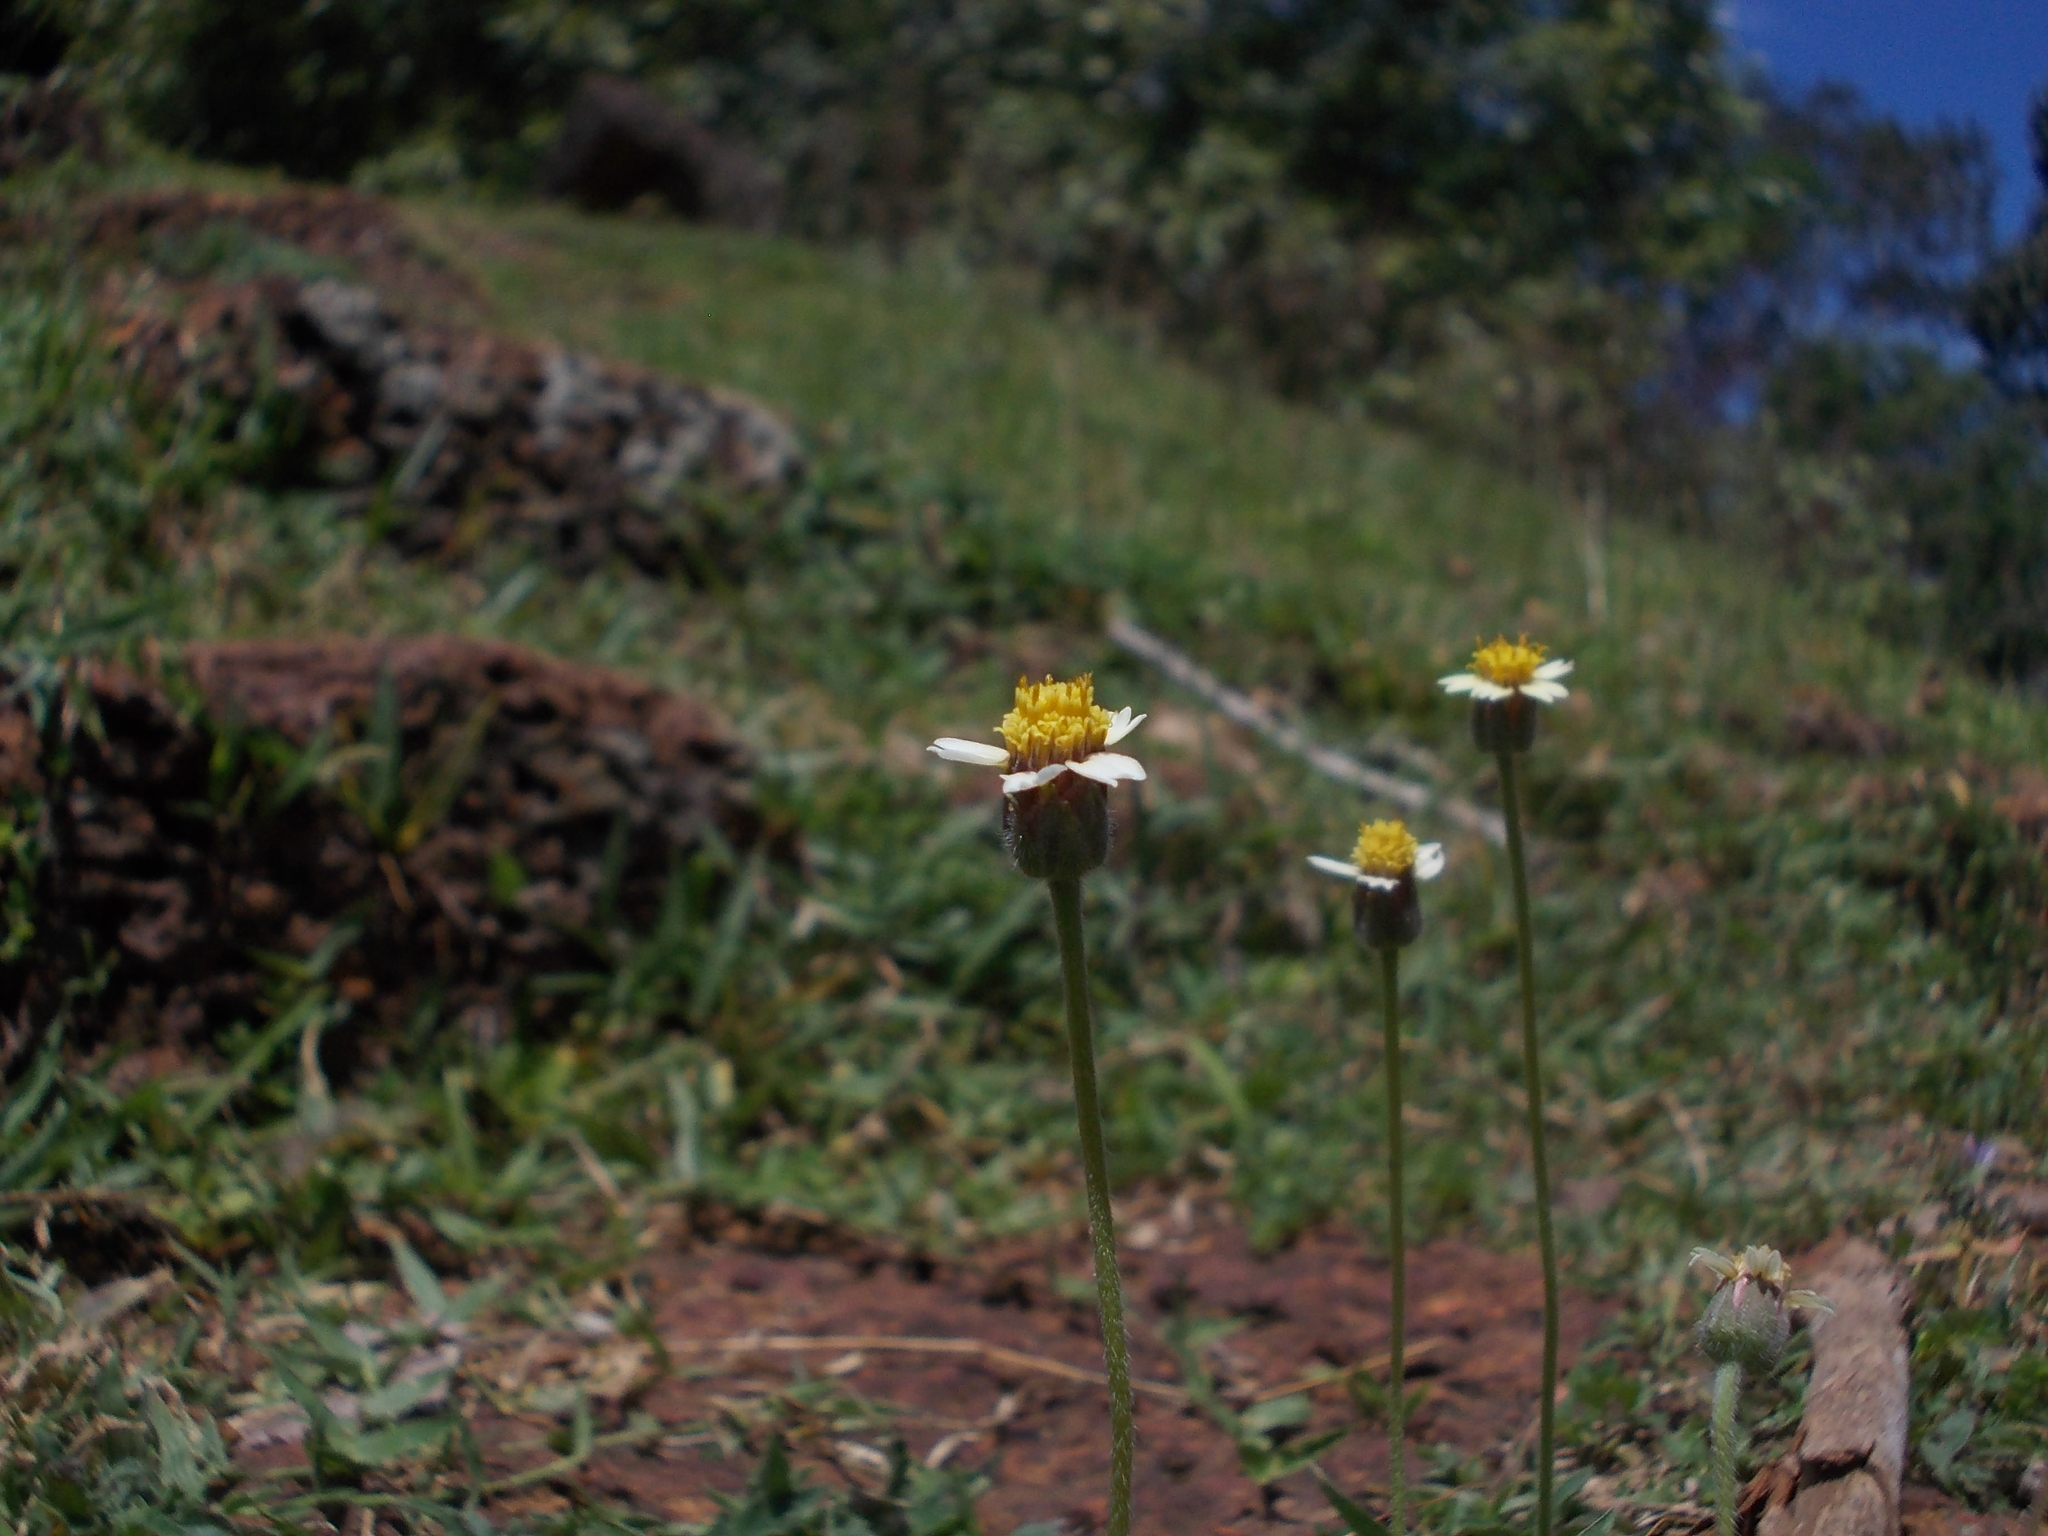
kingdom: Plantae
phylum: Tracheophyta
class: Magnoliopsida
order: Asterales
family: Asteraceae
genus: Tridax
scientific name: Tridax procumbens
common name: Coatbuttons
